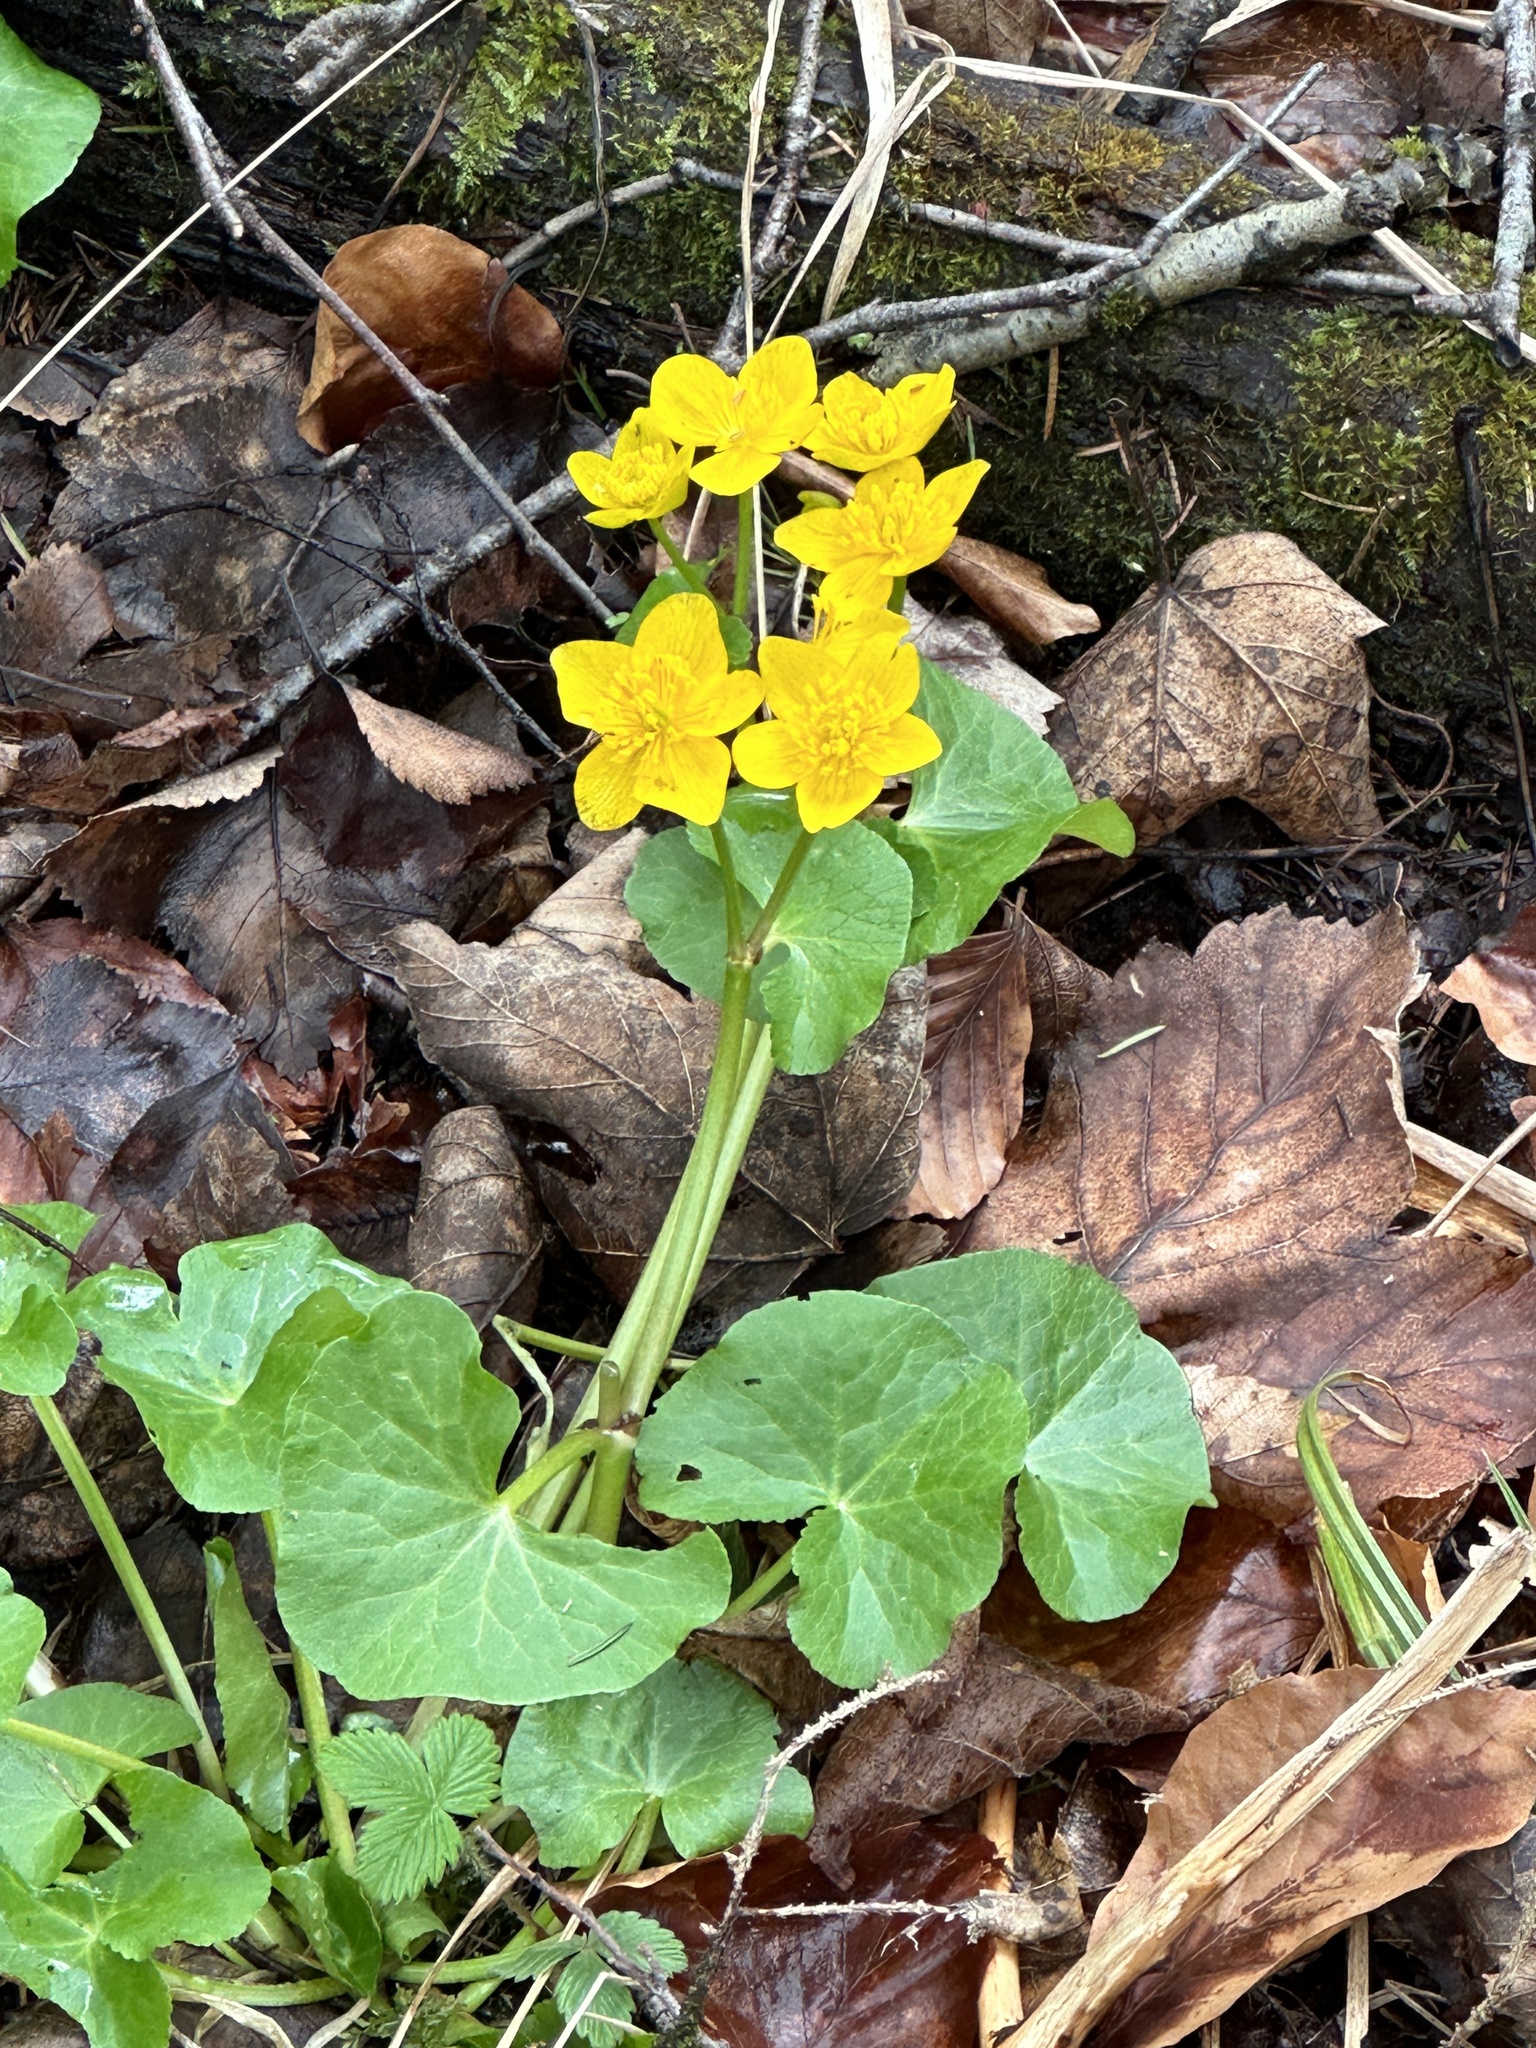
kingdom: Plantae
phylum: Tracheophyta
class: Magnoliopsida
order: Ranunculales
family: Ranunculaceae
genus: Caltha
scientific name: Caltha palustris
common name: Marsh marigold
